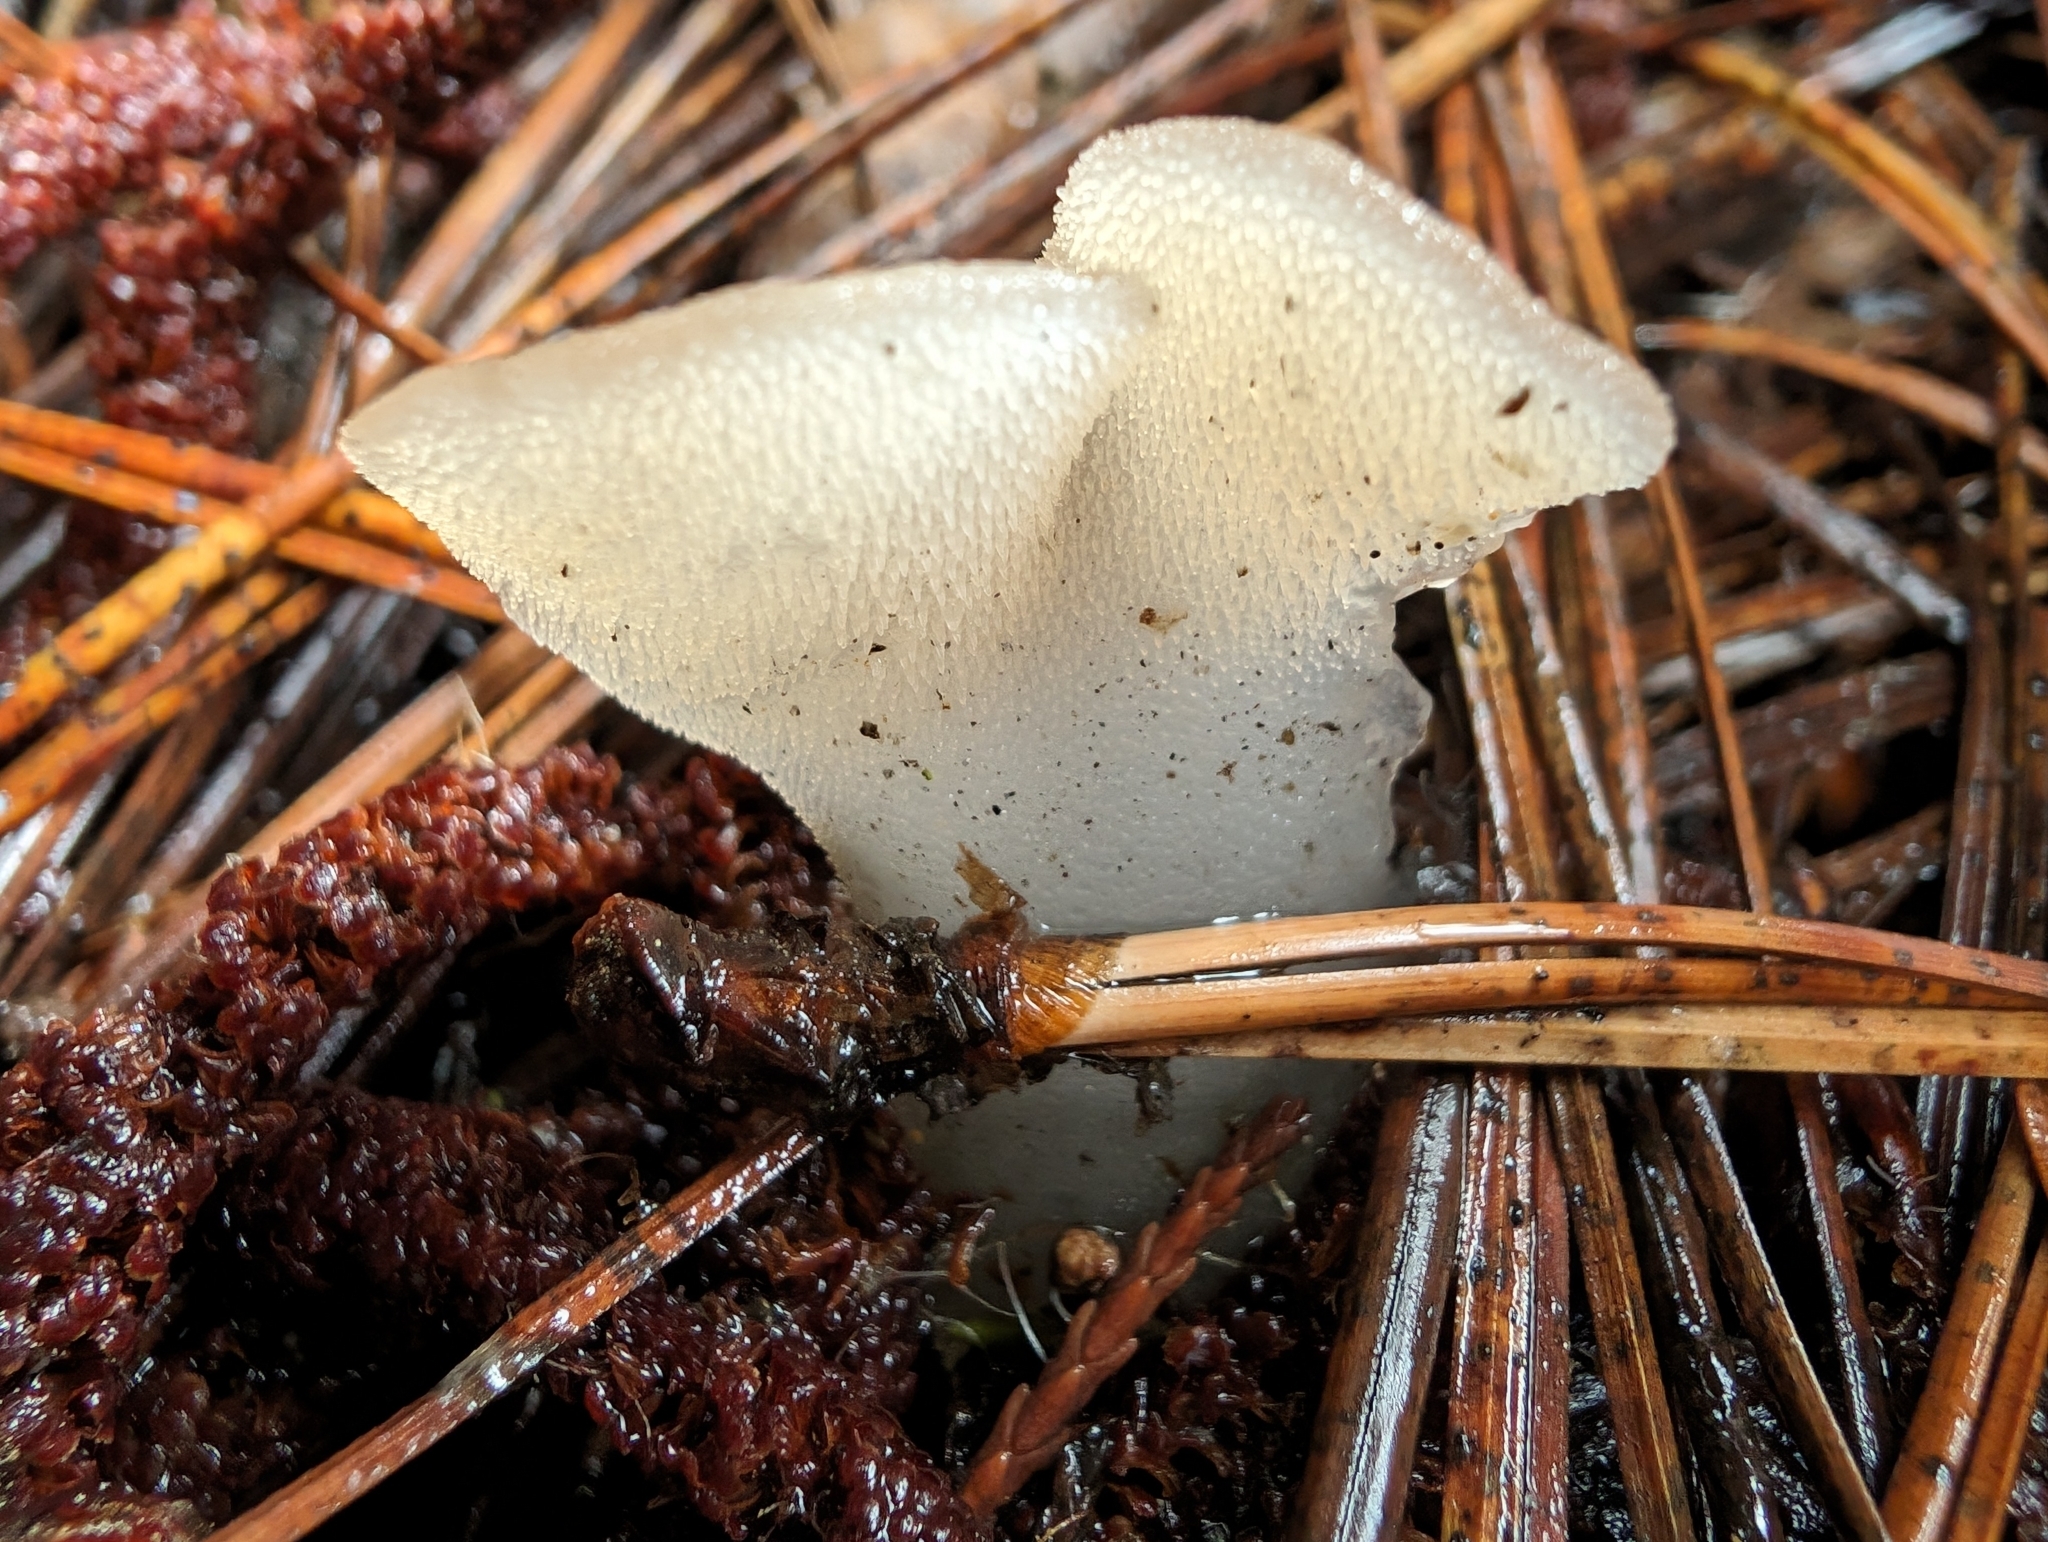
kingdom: Fungi
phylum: Basidiomycota
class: Agaricomycetes
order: Auriculariales
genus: Pseudohydnum
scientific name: Pseudohydnum gelatinosum
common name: Jelly tongue
